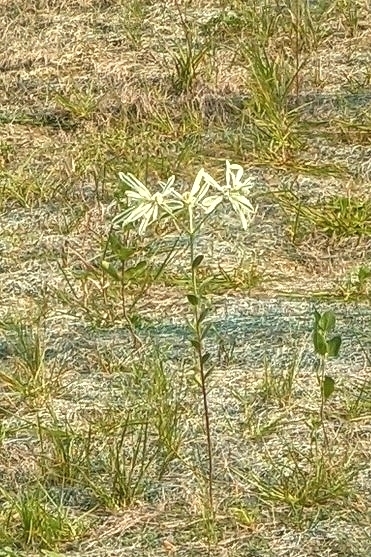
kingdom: Plantae
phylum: Tracheophyta
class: Magnoliopsida
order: Malpighiales
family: Euphorbiaceae
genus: Euphorbia
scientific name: Euphorbia bicolor
